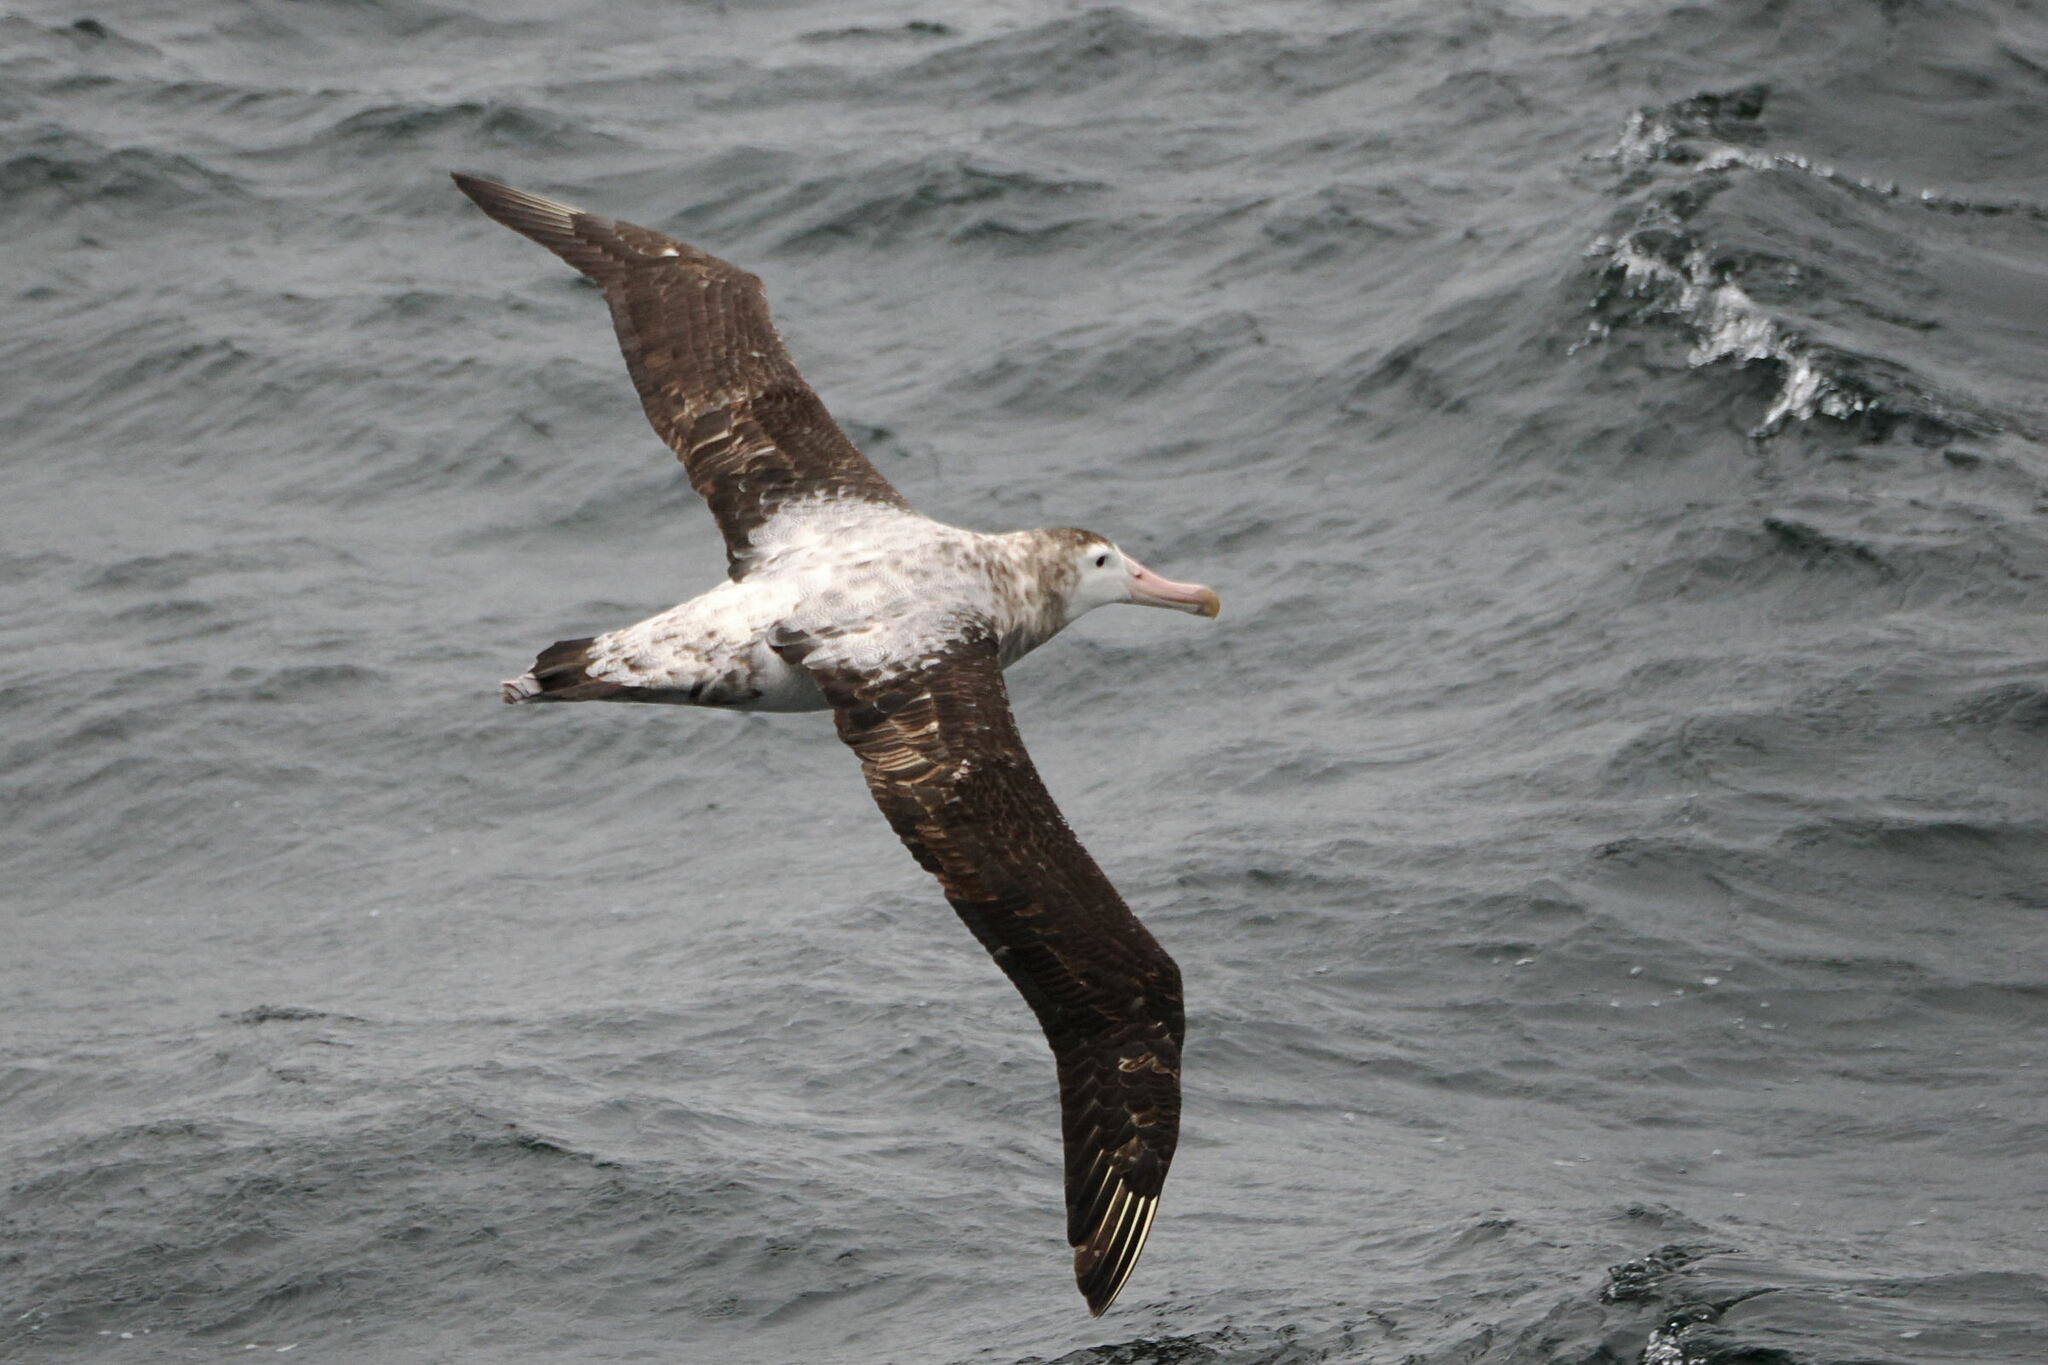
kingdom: Animalia
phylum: Chordata
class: Aves
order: Procellariiformes
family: Diomedeidae
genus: Diomedea
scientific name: Diomedea exulans
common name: Wandering albatross
